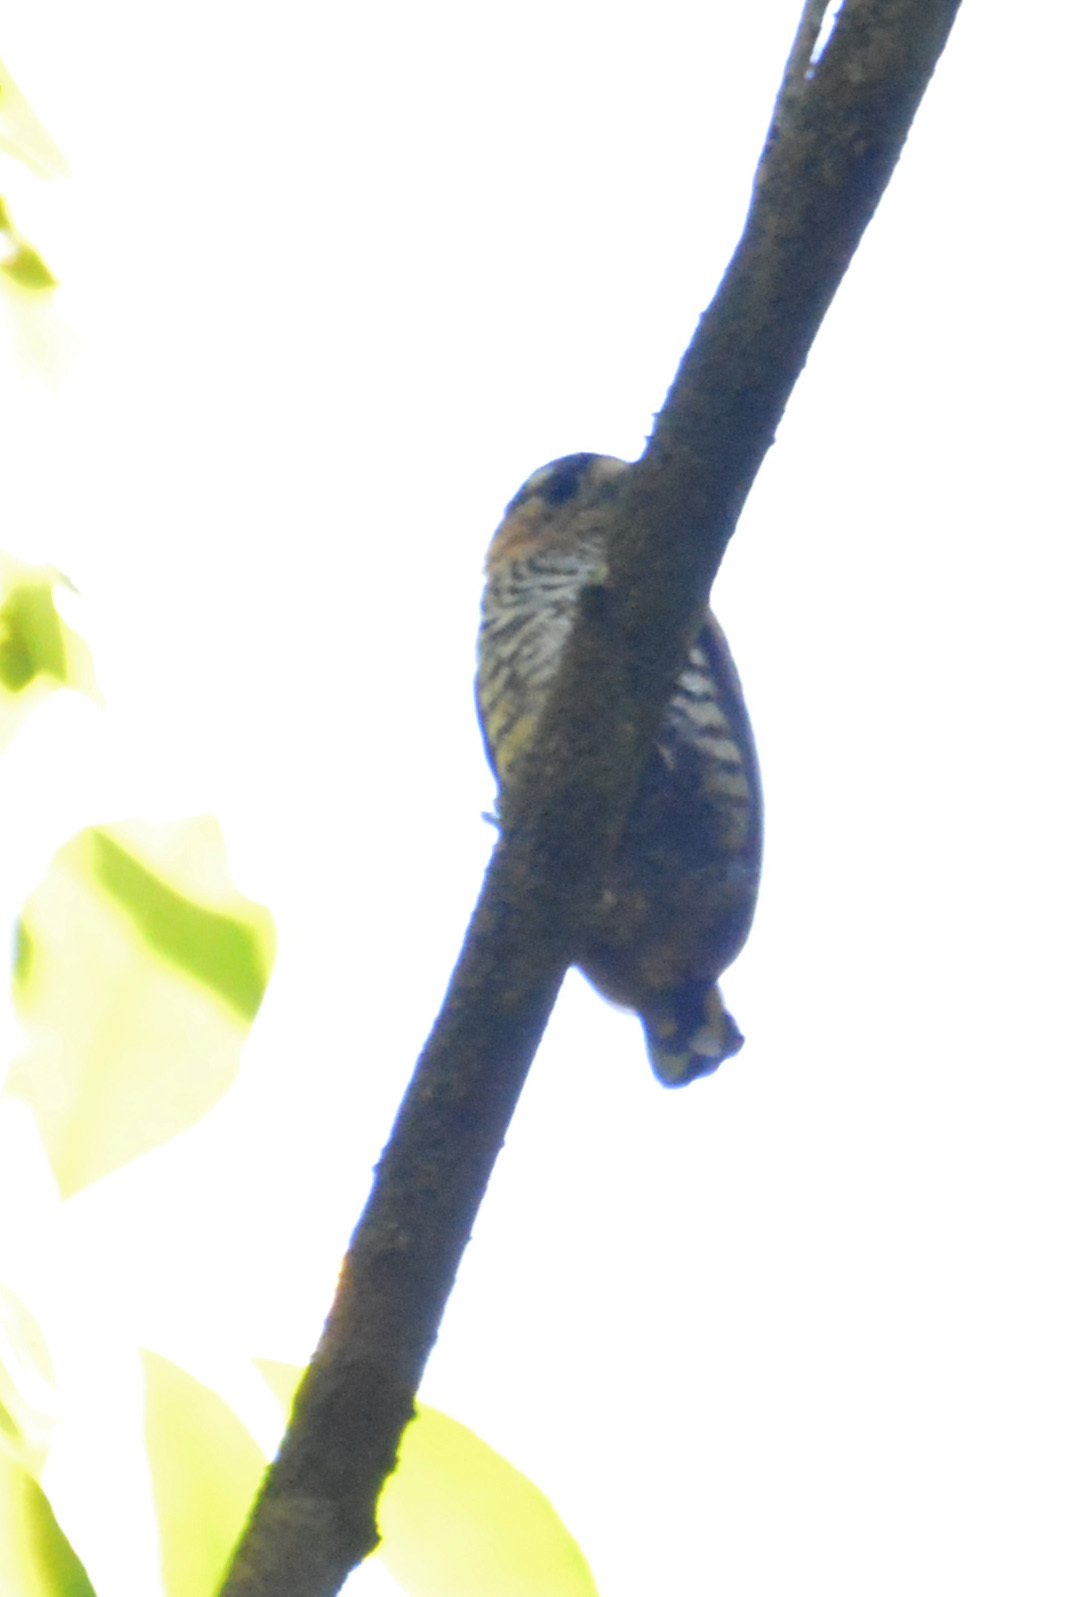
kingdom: Animalia
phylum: Chordata
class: Aves
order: Piciformes
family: Picidae
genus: Picumnus
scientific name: Picumnus temminckii
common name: Ochre-collared piculet
